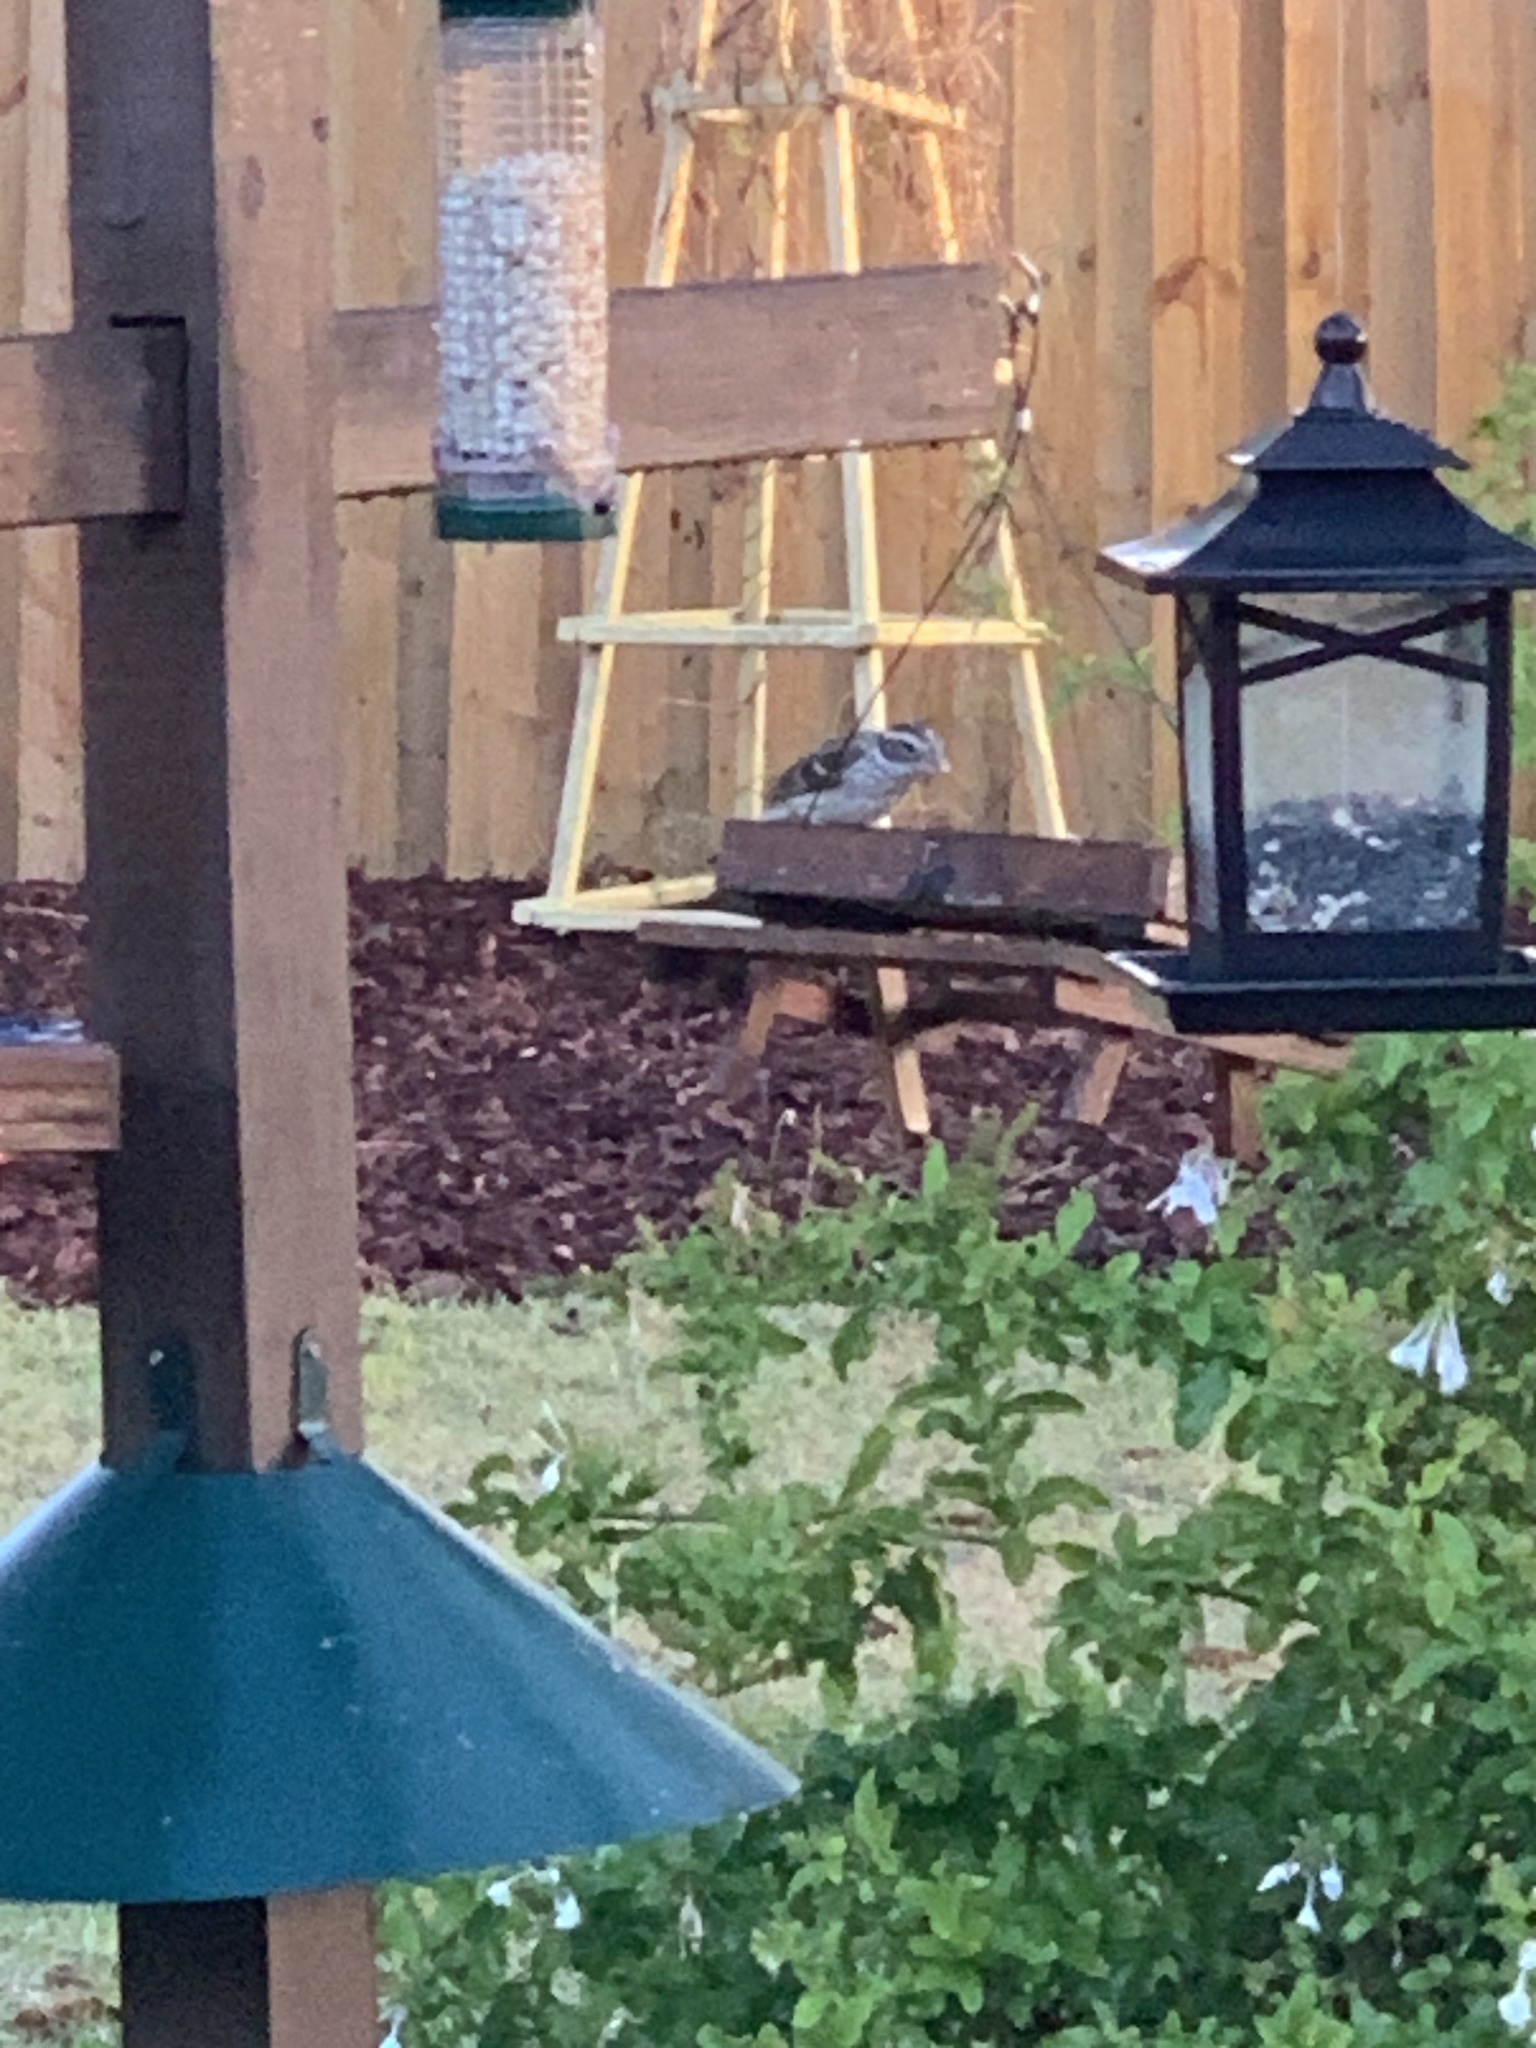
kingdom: Animalia
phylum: Chordata
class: Aves
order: Passeriformes
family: Cardinalidae
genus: Pheucticus
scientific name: Pheucticus ludovicianus
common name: Rose-breasted grosbeak
